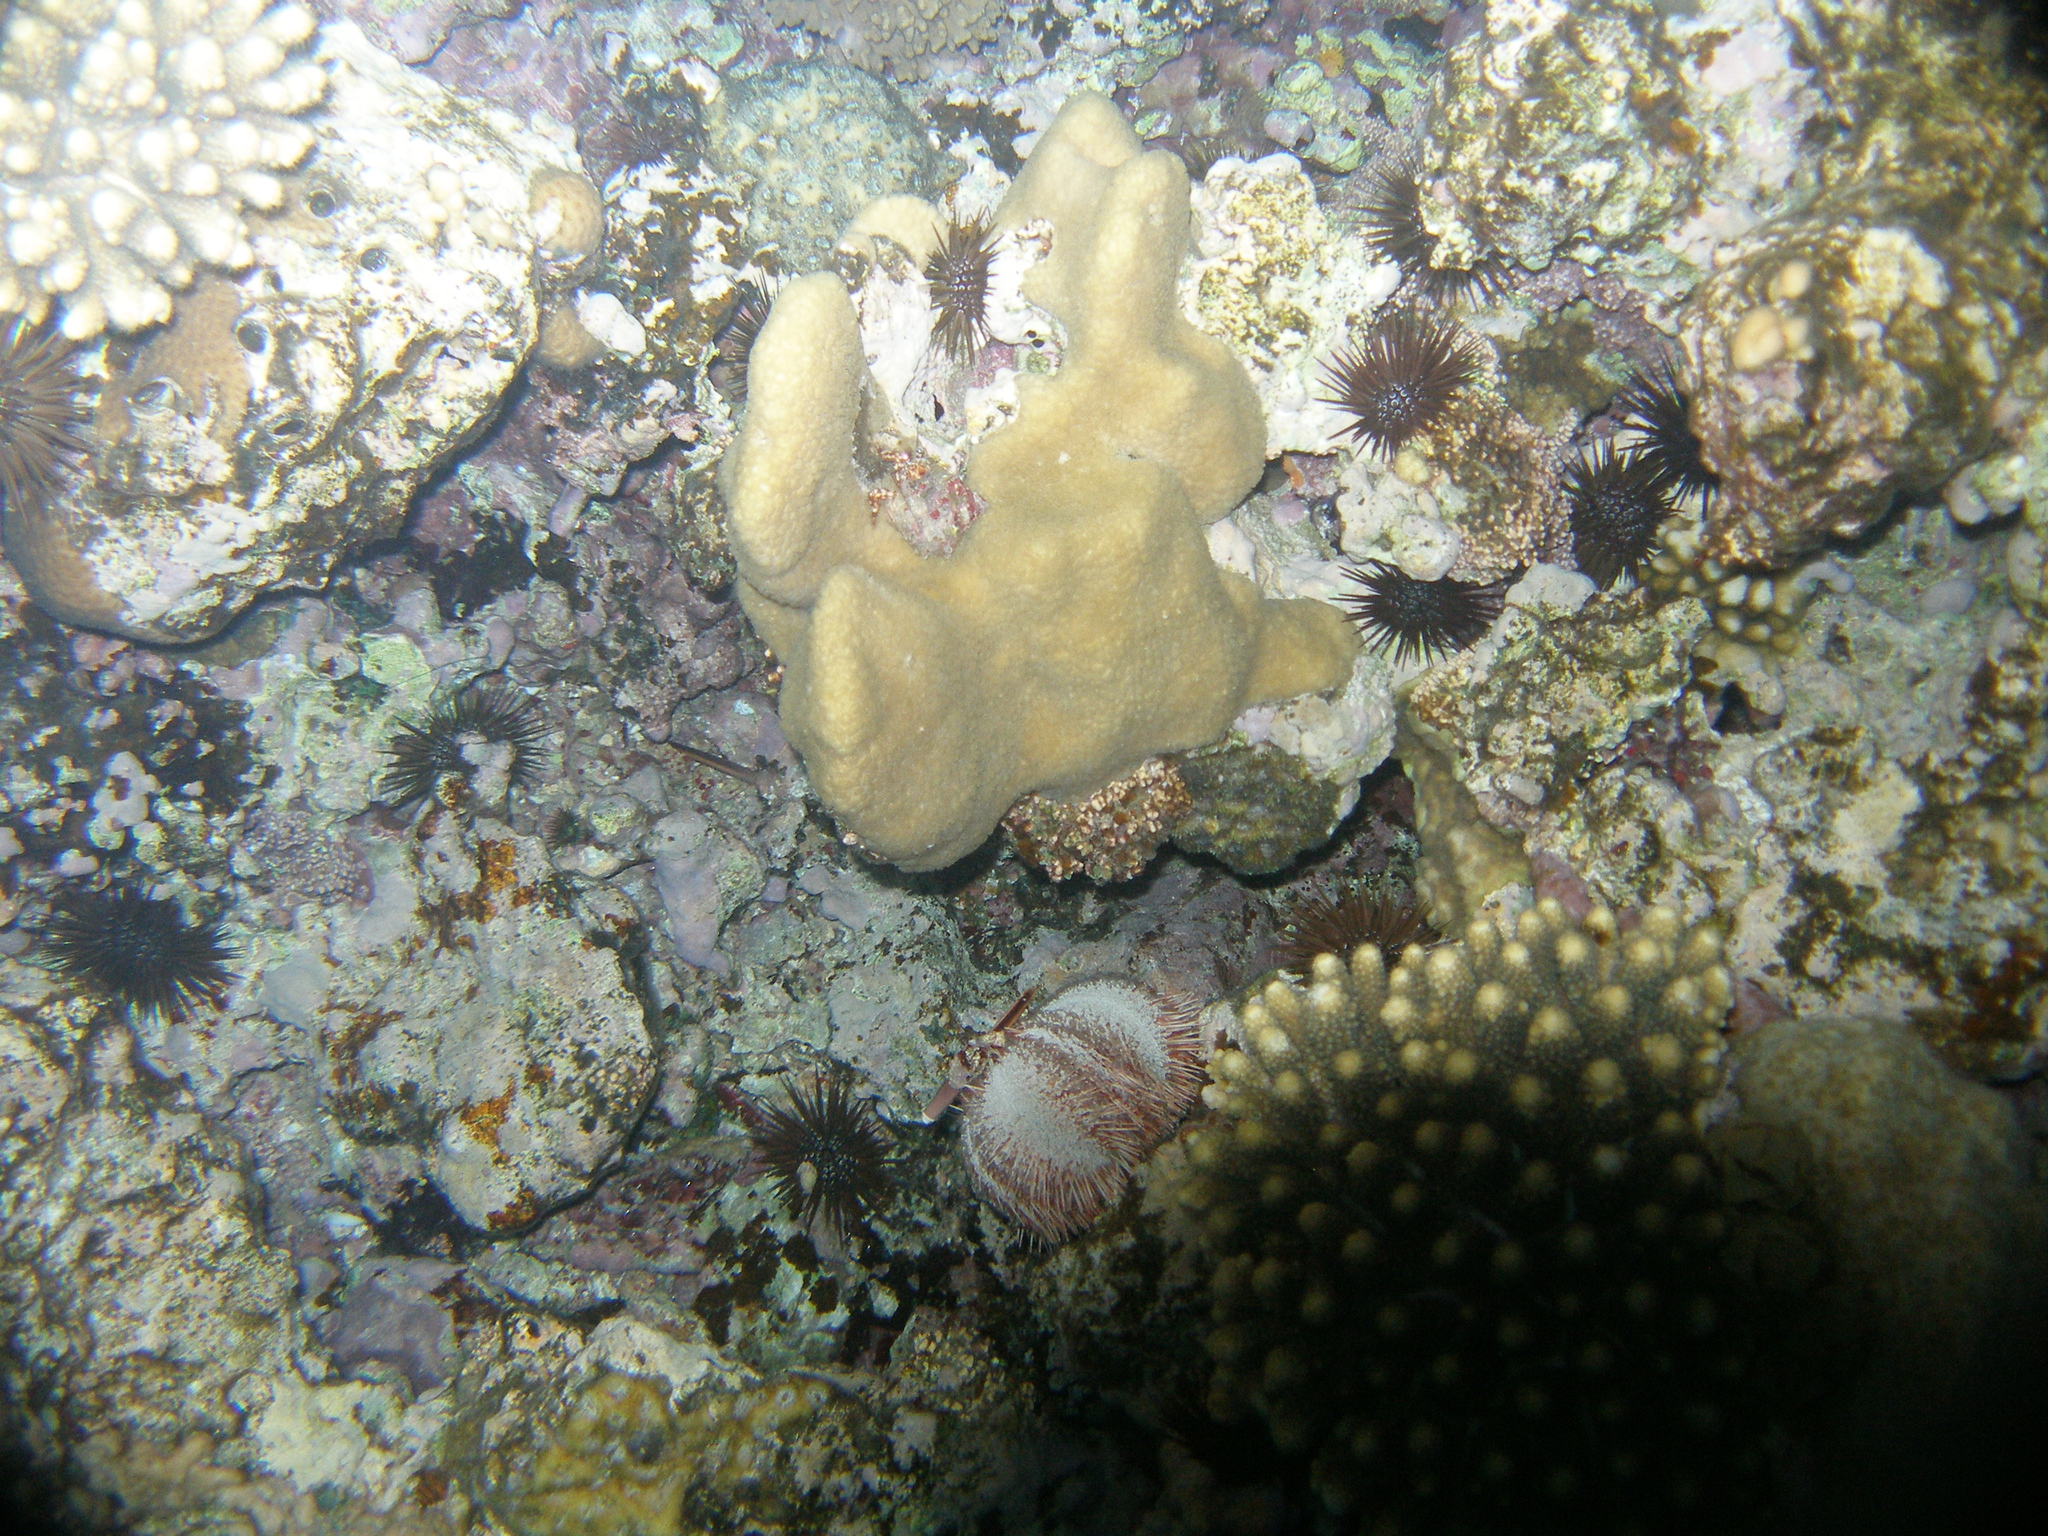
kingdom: Animalia
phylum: Echinodermata
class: Echinoidea
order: Camarodonta
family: Toxopneustidae
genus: Tripneustes
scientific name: Tripneustes gratilla
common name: Bischofsmützenseeigel
